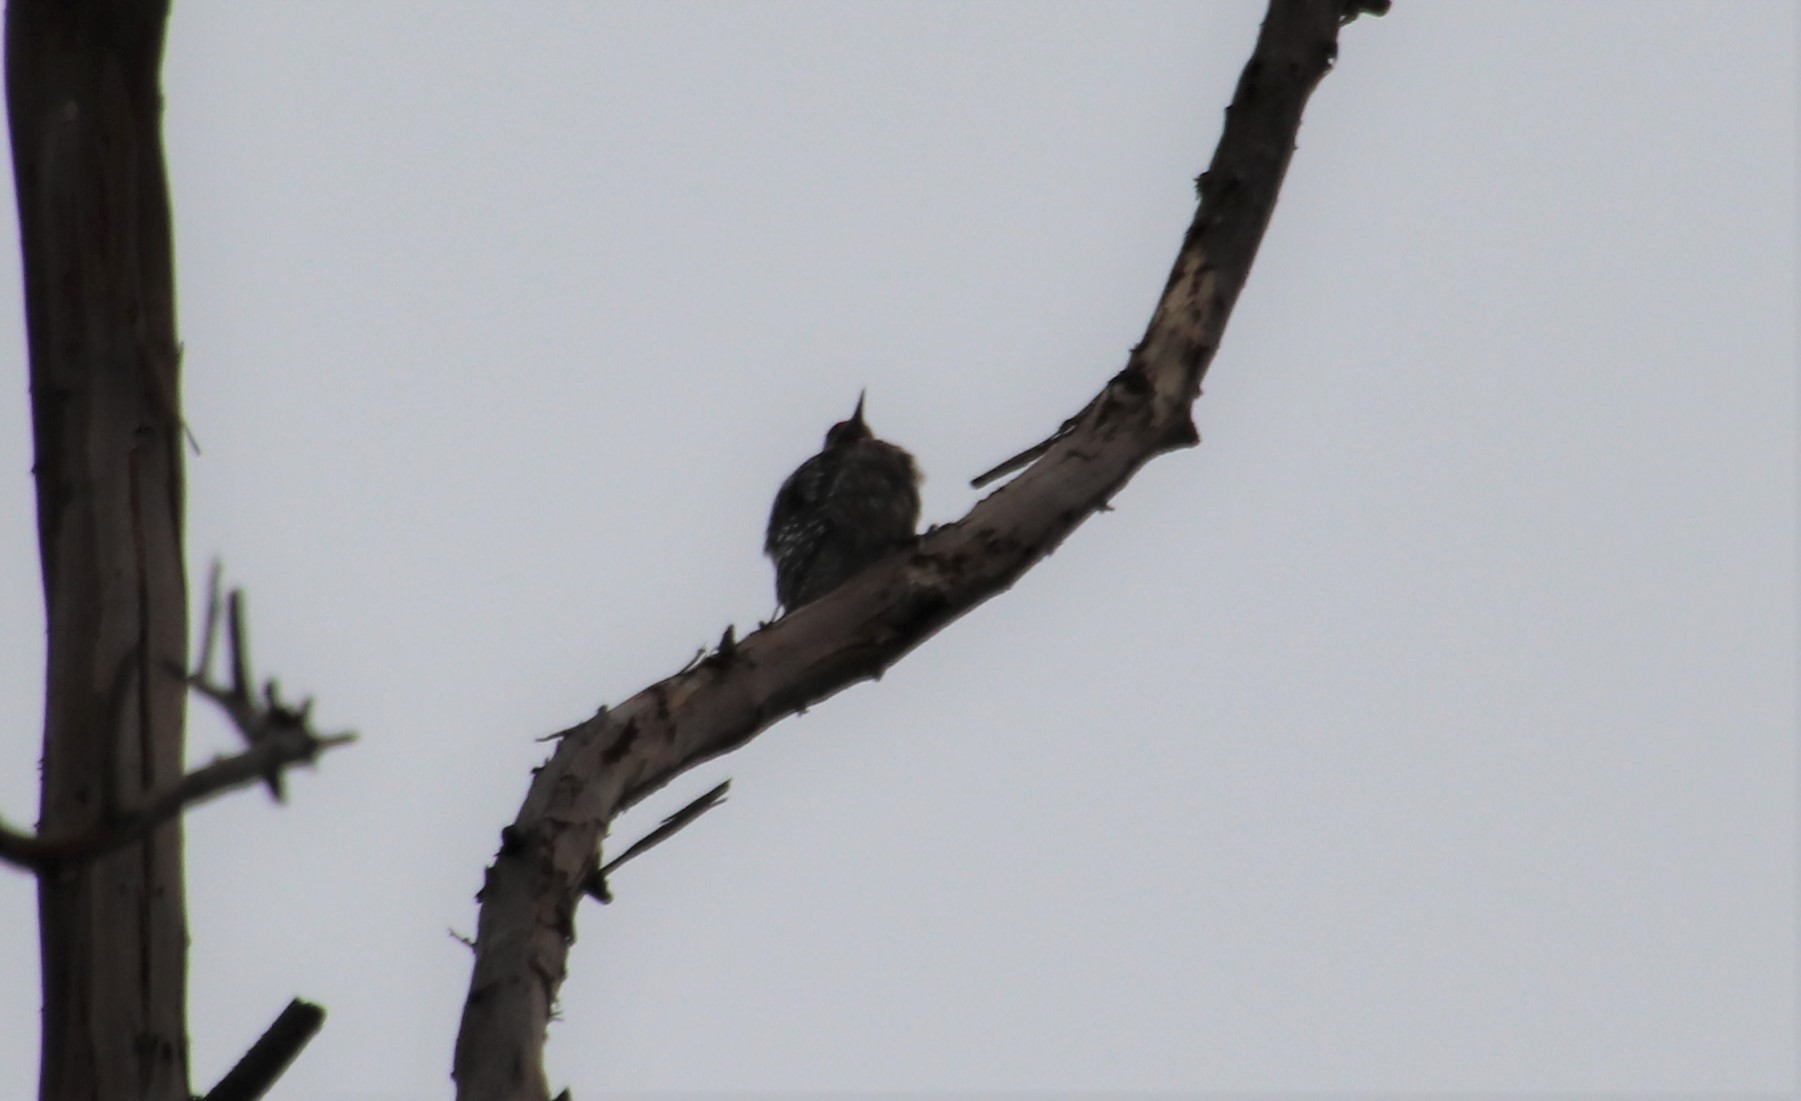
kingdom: Animalia
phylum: Chordata
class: Aves
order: Piciformes
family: Picidae
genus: Sphyrapicus
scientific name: Sphyrapicus
